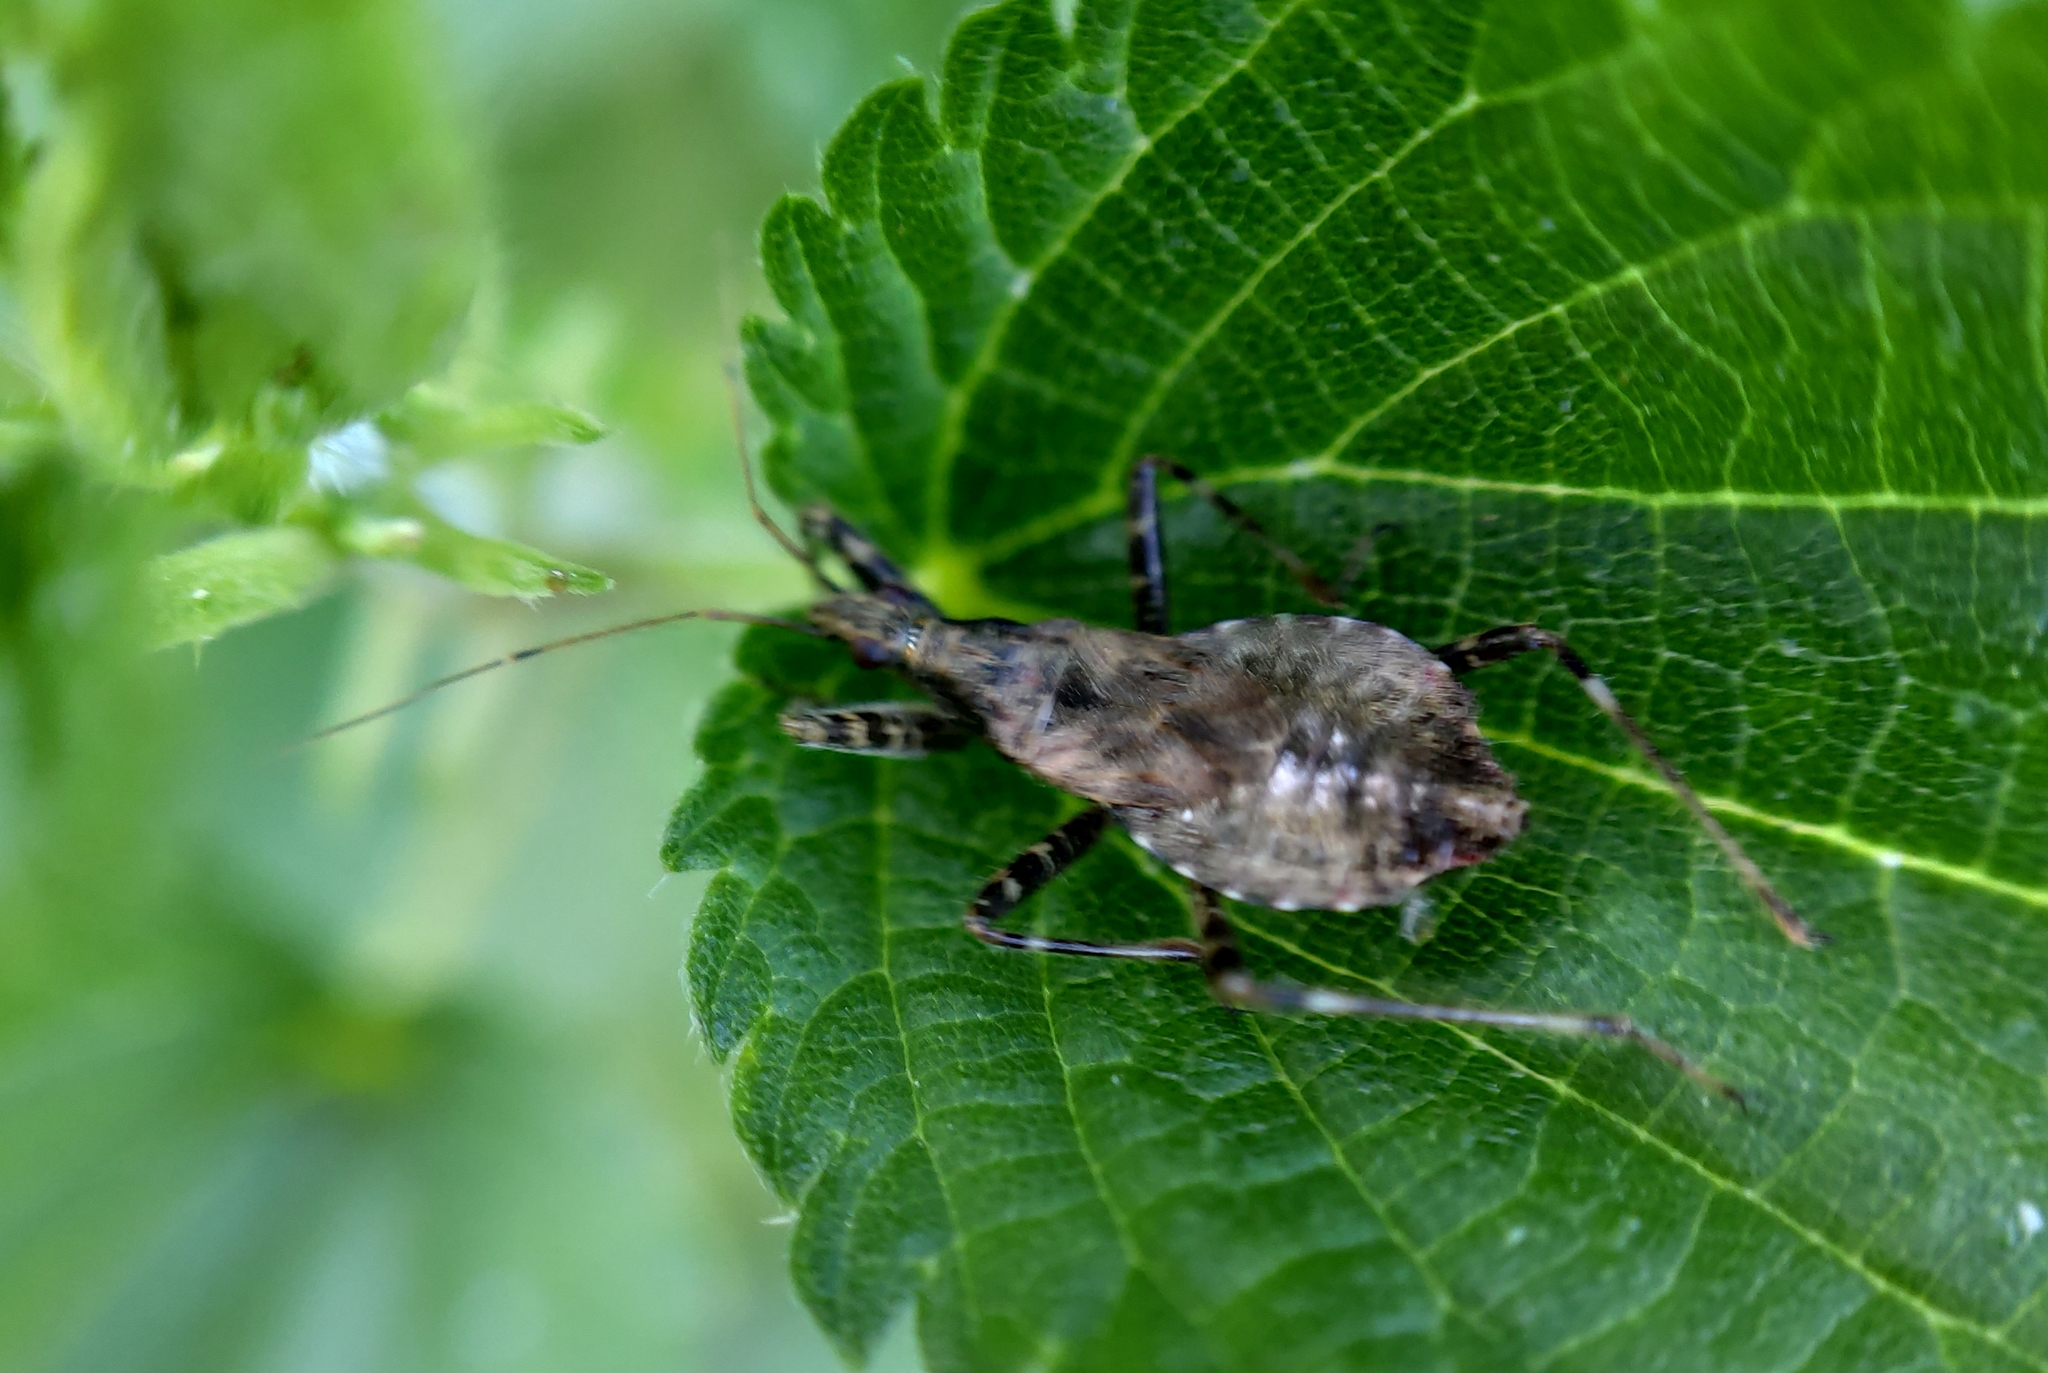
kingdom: Animalia
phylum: Arthropoda
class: Insecta
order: Hemiptera
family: Nabidae
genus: Himacerus
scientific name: Himacerus apterus
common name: Tree damsel bug
